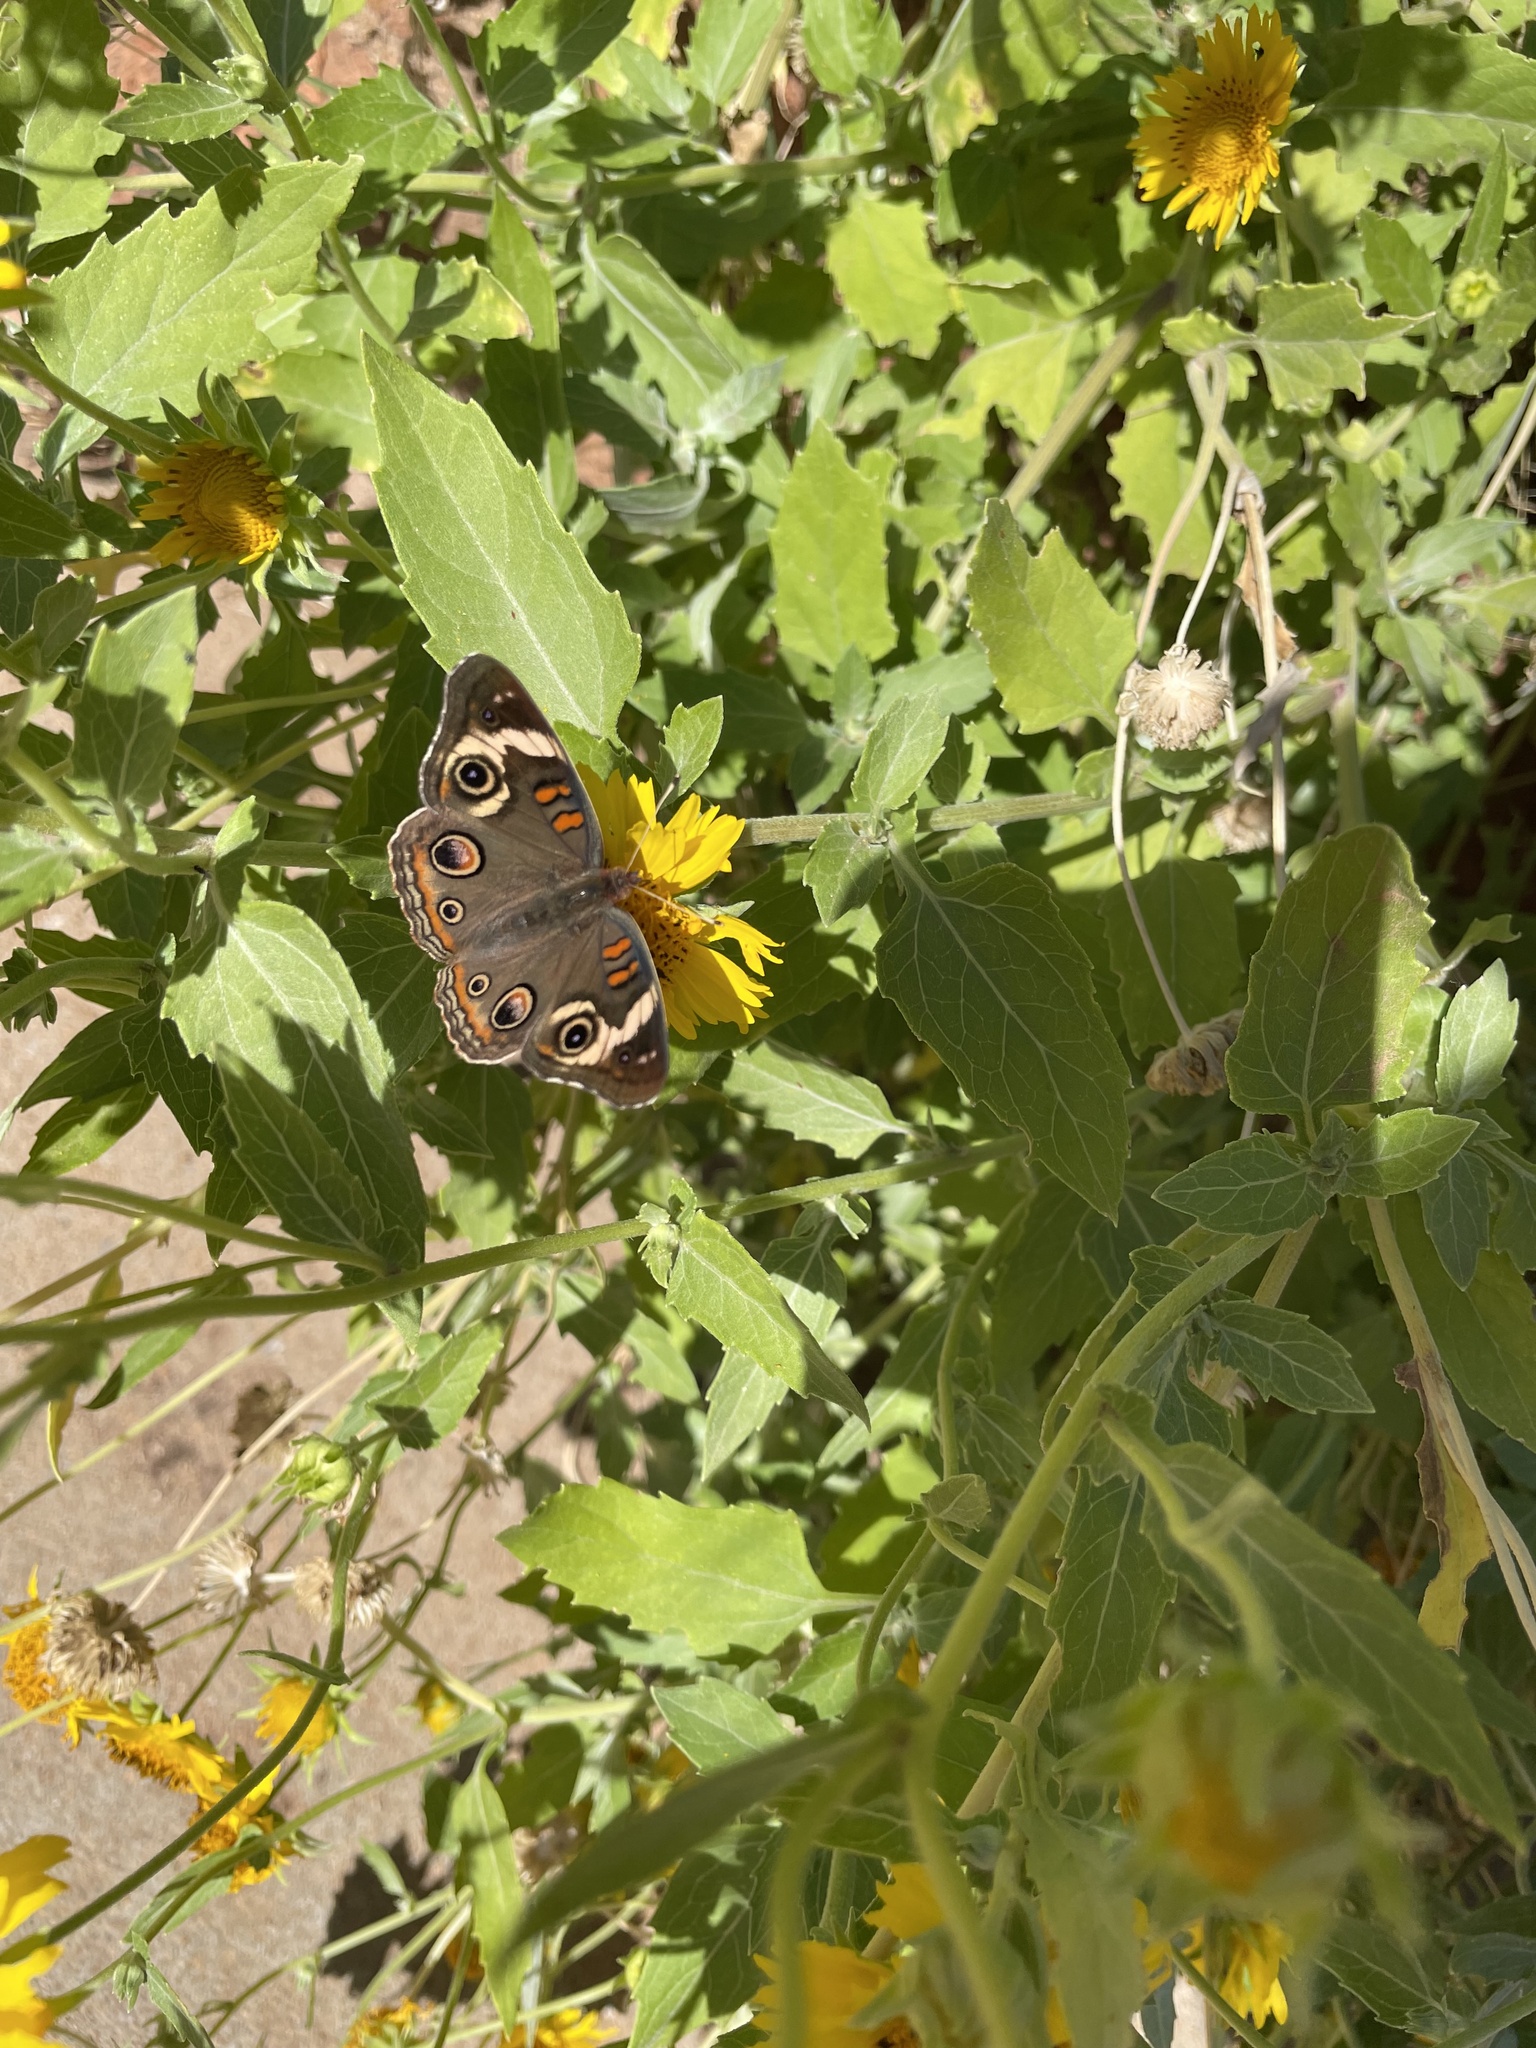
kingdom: Animalia
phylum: Arthropoda
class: Insecta
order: Lepidoptera
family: Nymphalidae
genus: Junonia
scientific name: Junonia coenia
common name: Common buckeye
